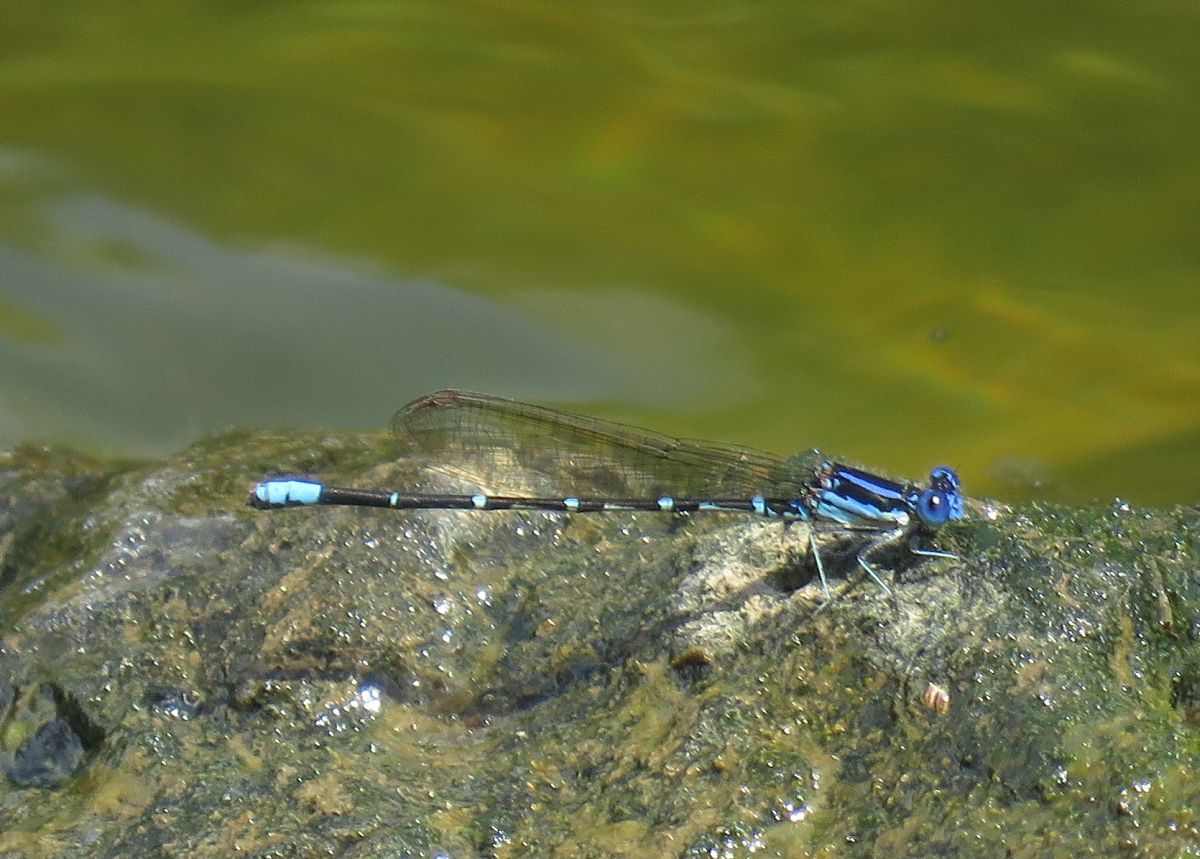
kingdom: Animalia
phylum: Arthropoda
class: Insecta
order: Odonata
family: Coenagrionidae
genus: Argia
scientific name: Argia sedula
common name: Blue-ringed dancer
